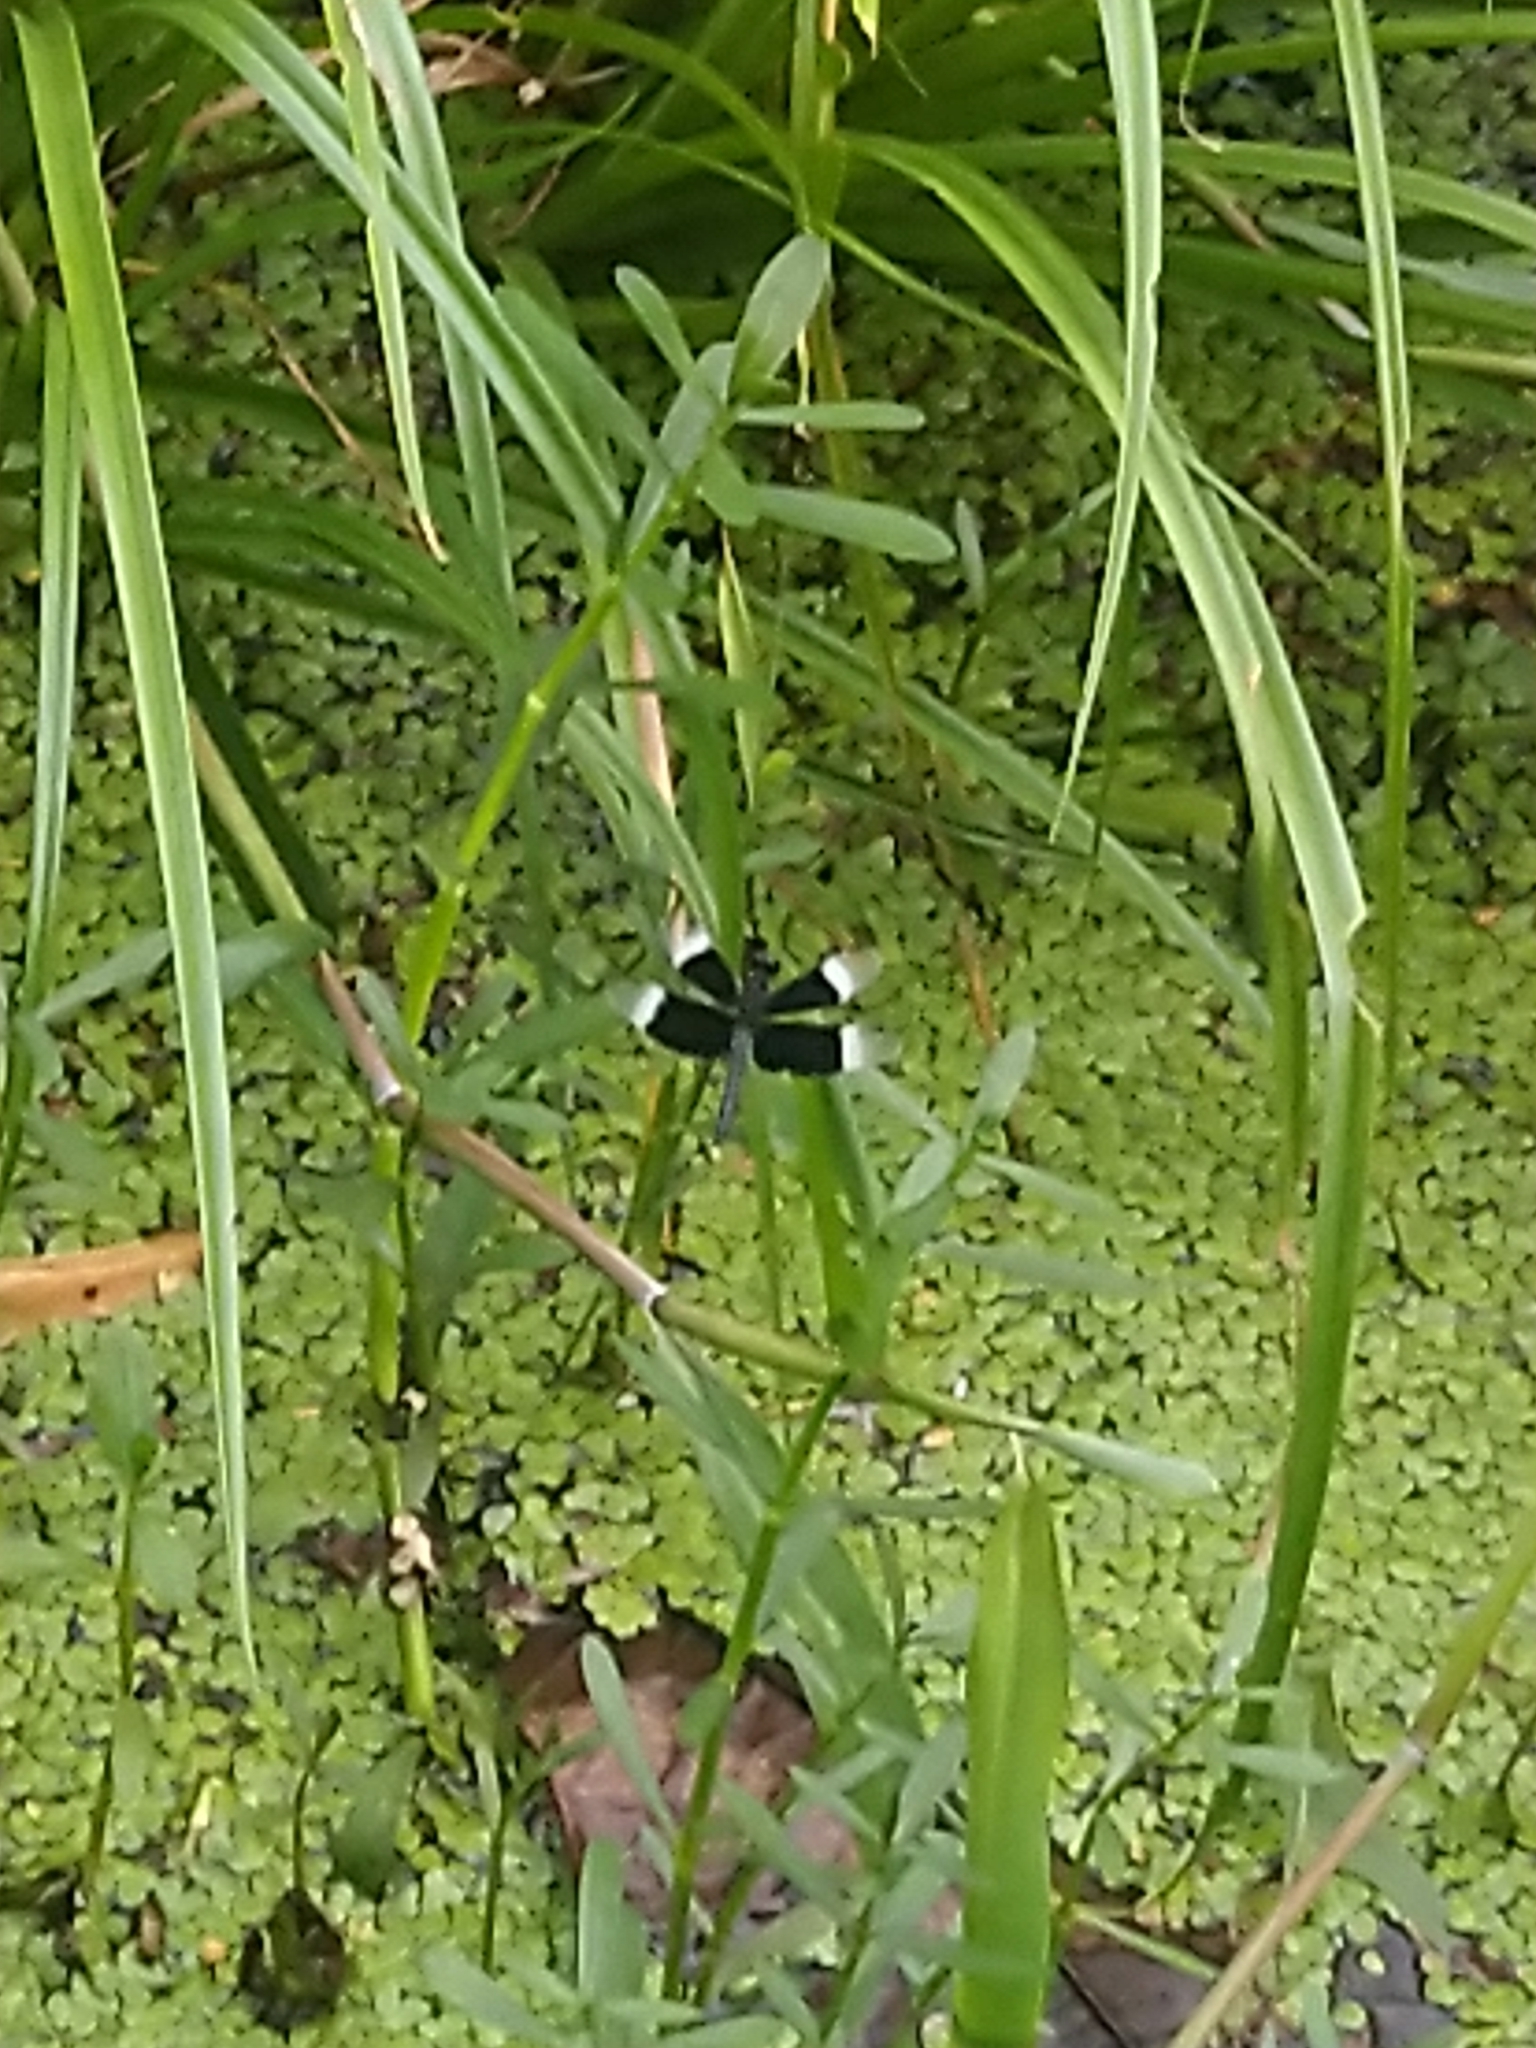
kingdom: Animalia
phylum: Arthropoda
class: Insecta
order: Odonata
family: Libellulidae
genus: Neurothemis
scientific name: Neurothemis tullia
